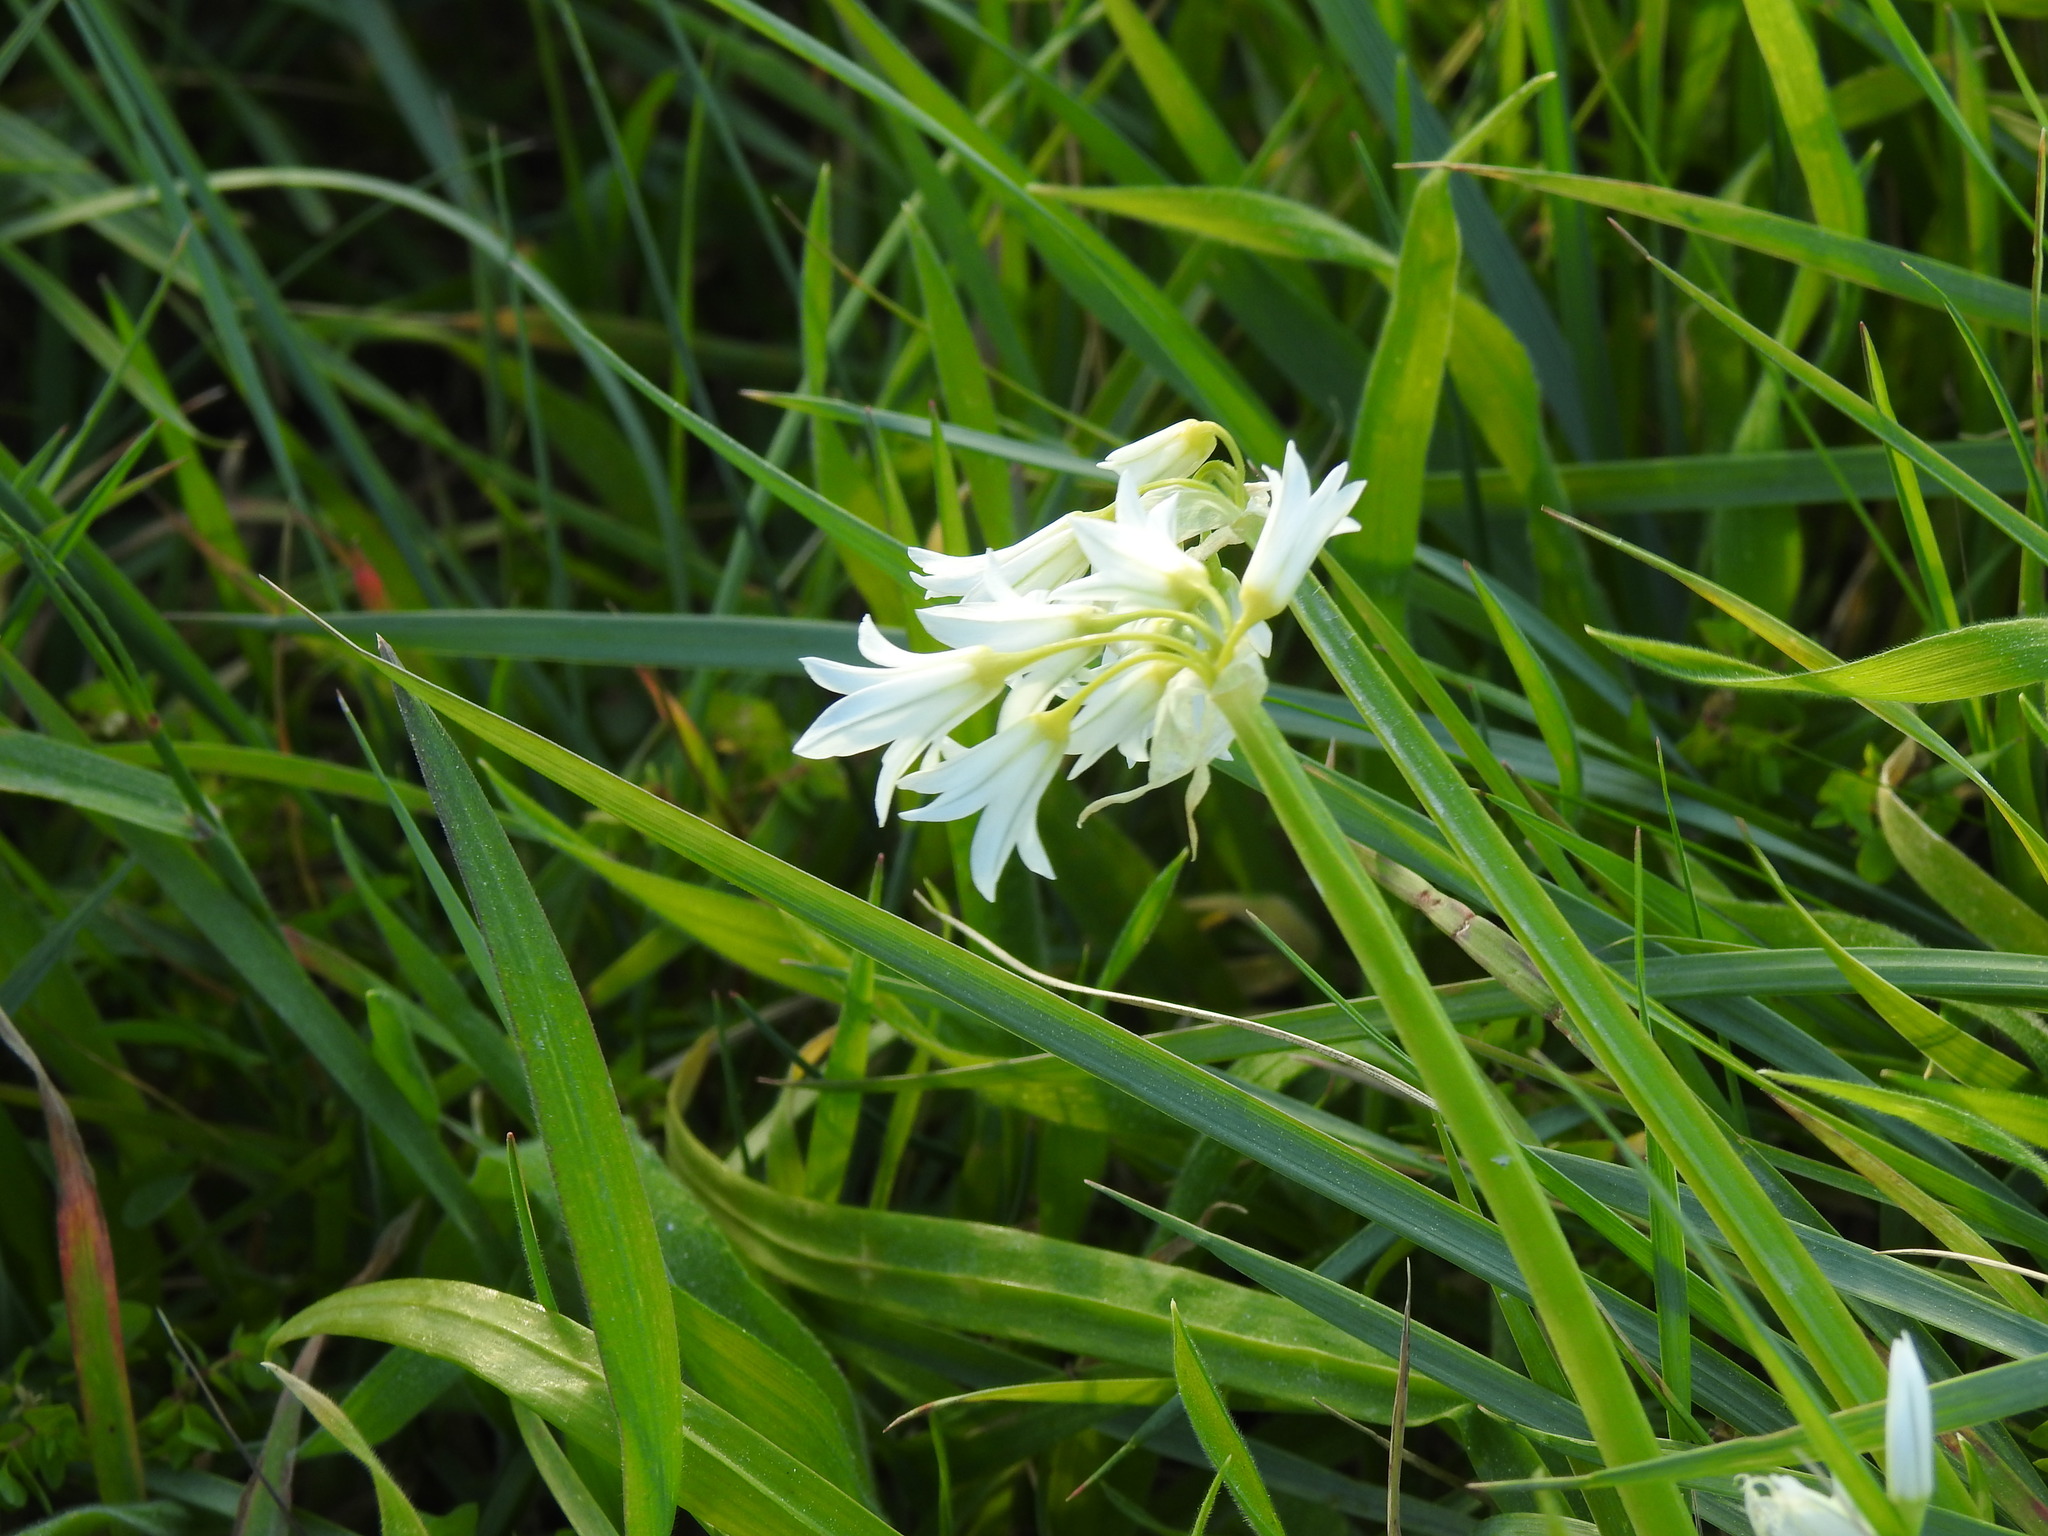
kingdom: Plantae
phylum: Tracheophyta
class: Liliopsida
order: Asparagales
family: Amaryllidaceae
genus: Allium
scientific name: Allium triquetrum
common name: Three-cornered garlic
